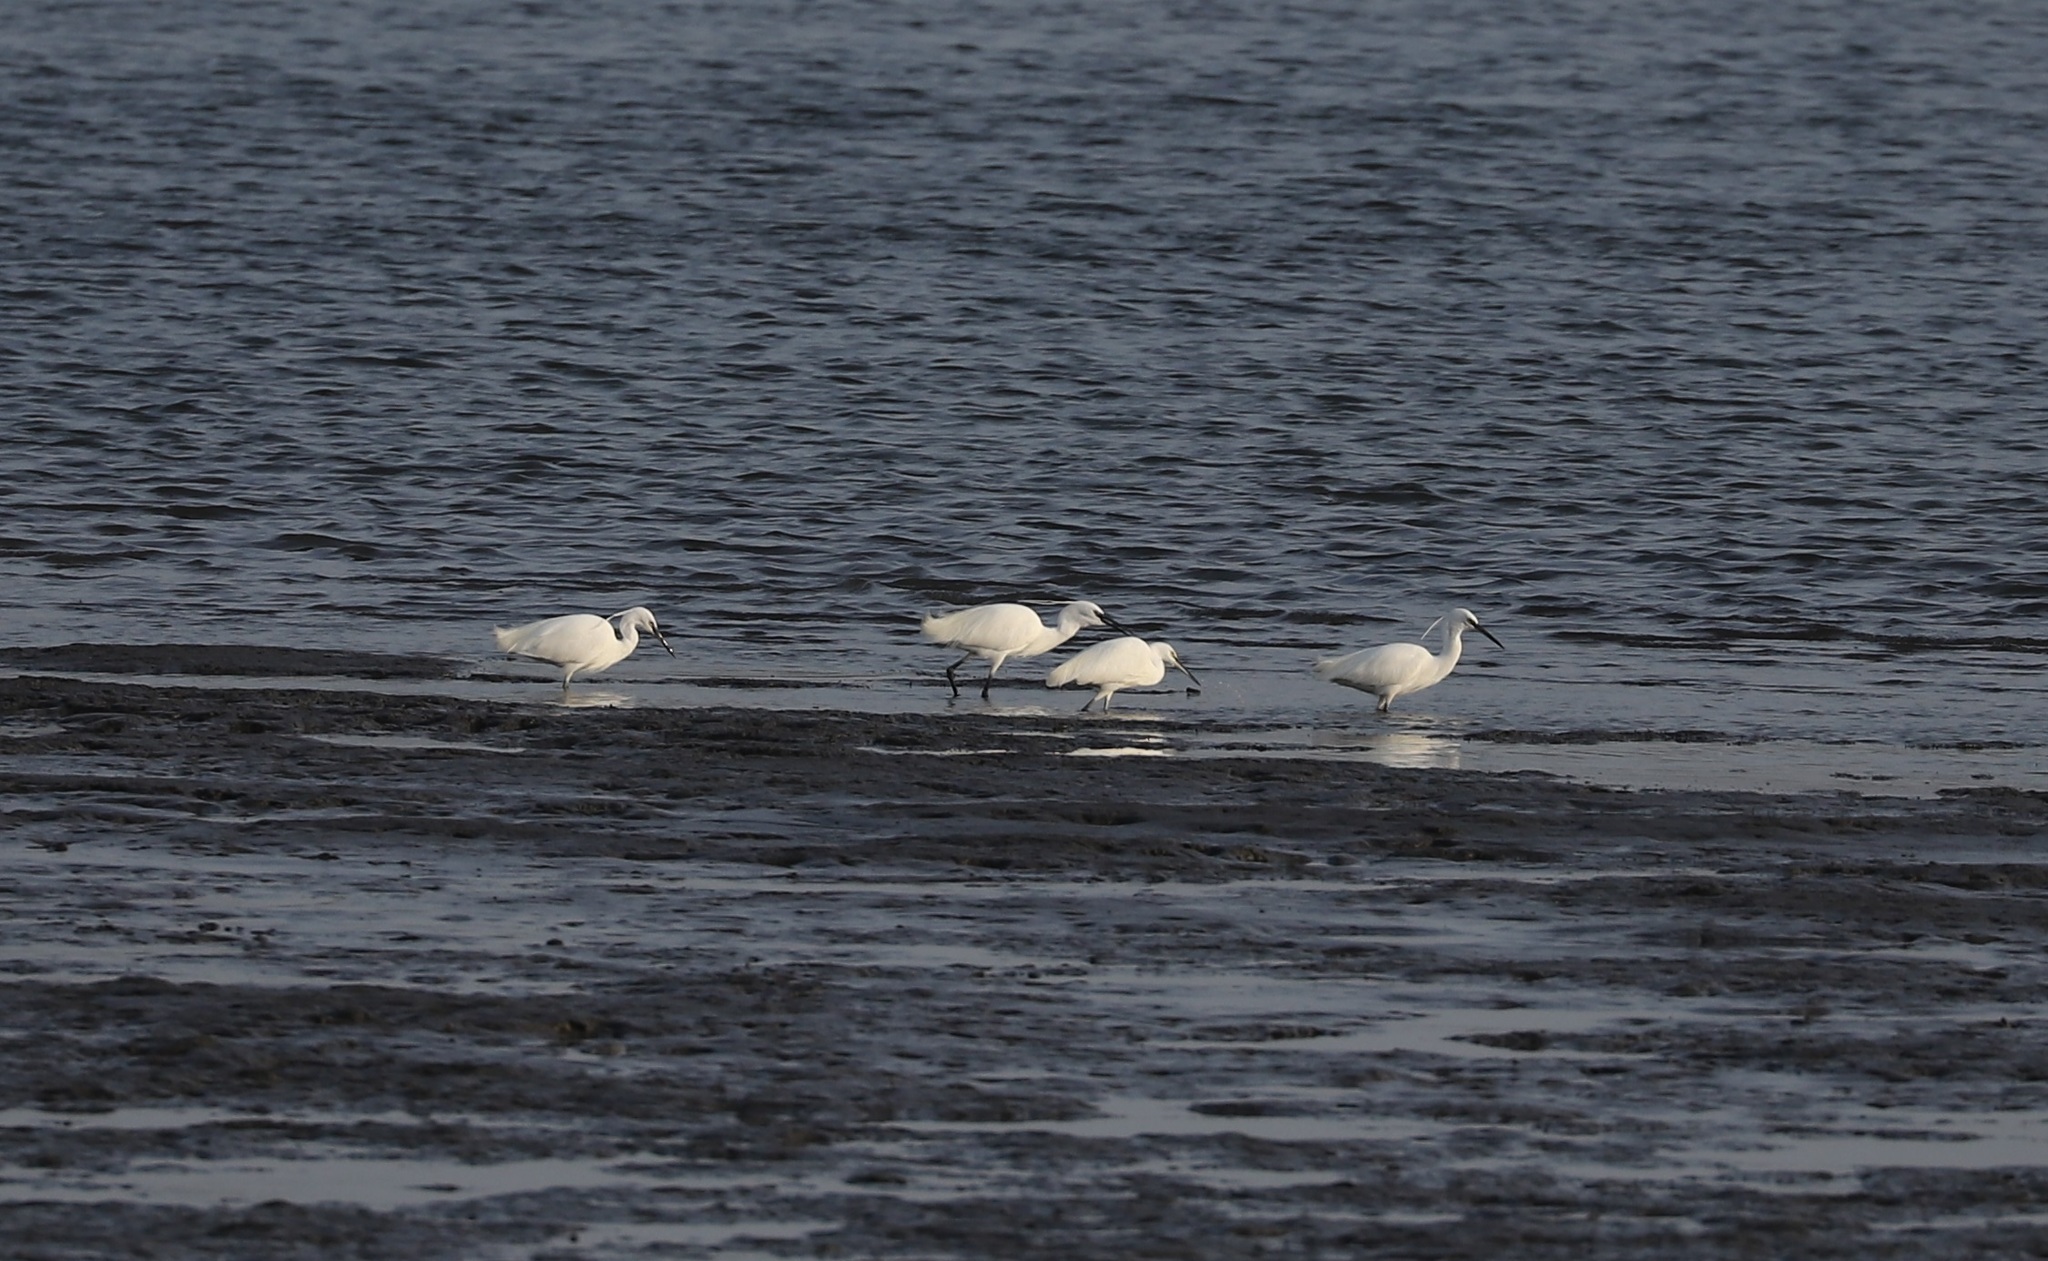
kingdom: Animalia
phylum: Chordata
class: Aves
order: Pelecaniformes
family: Ardeidae
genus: Egretta
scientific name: Egretta garzetta
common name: Little egret
